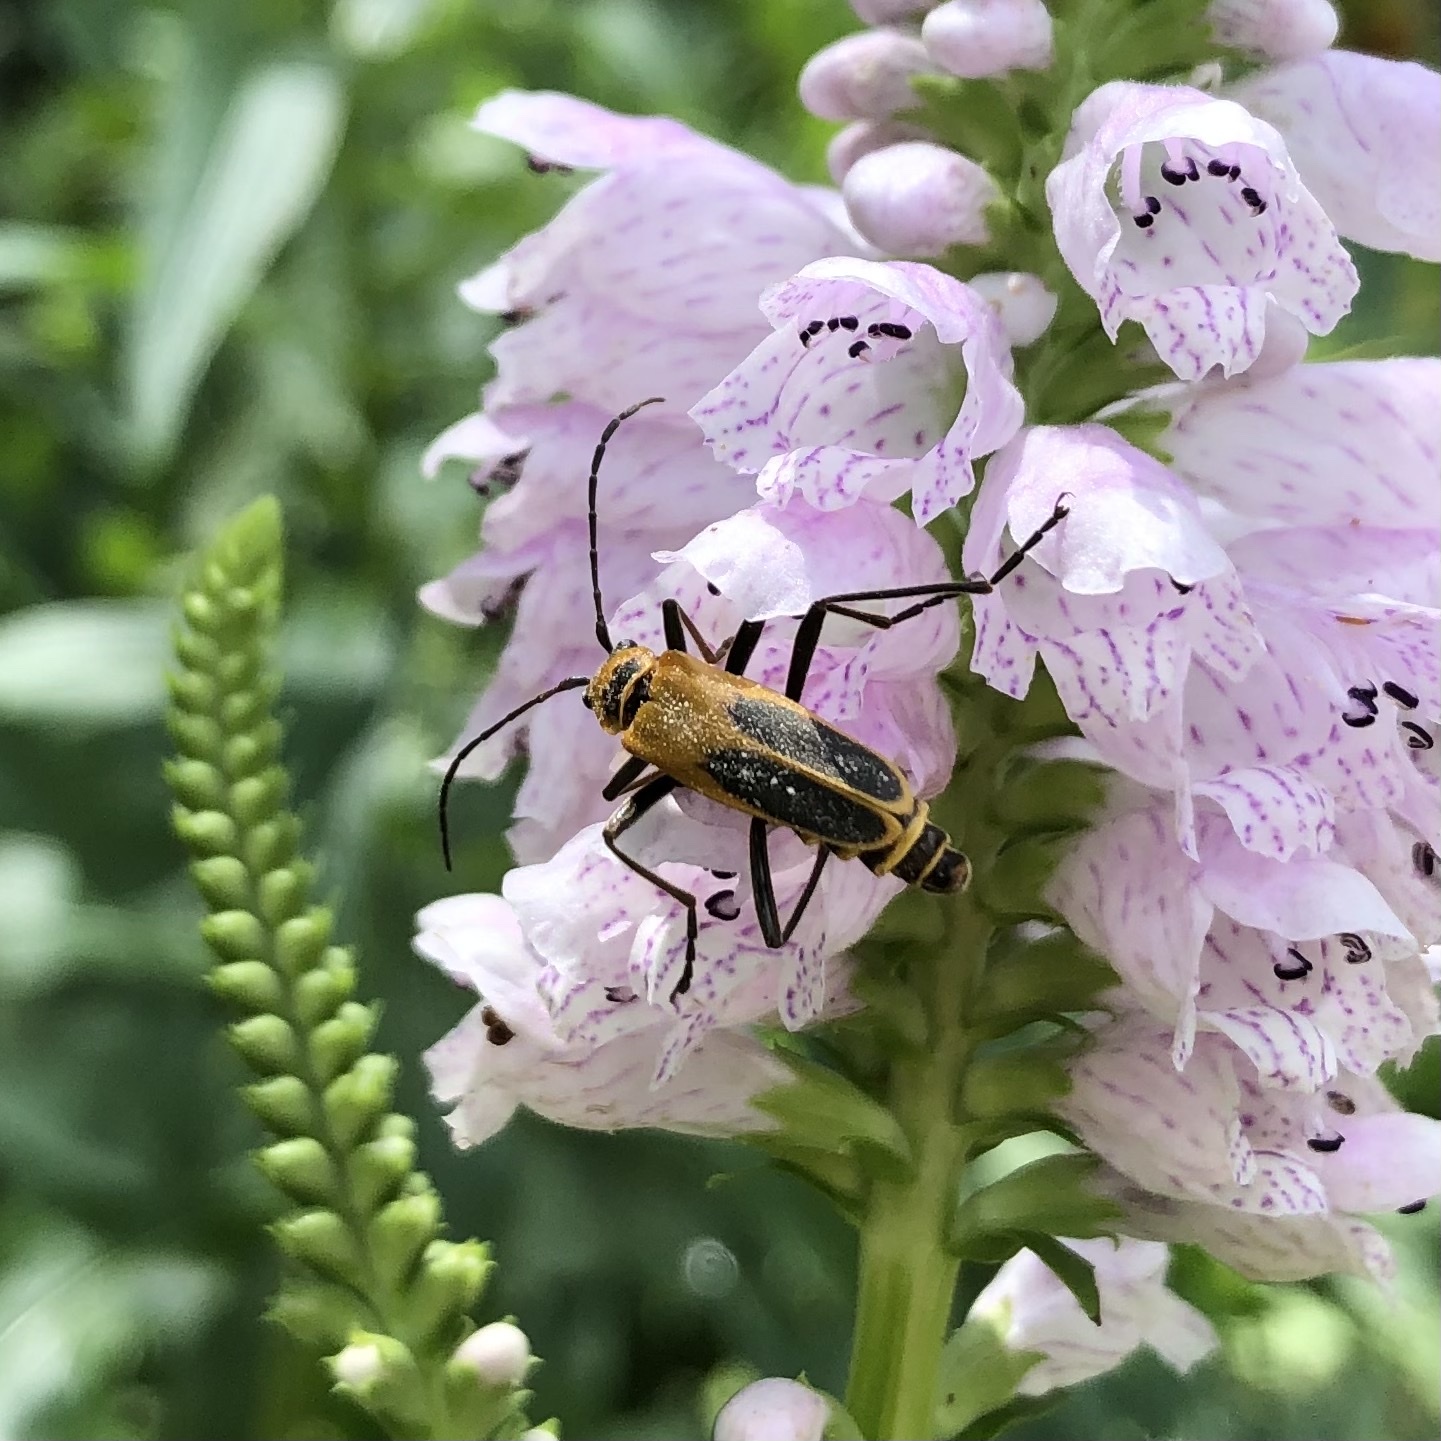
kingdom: Animalia
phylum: Arthropoda
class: Insecta
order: Coleoptera
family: Cantharidae
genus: Chauliognathus
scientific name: Chauliognathus pensylvanicus
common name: Goldenrod soldier beetle
